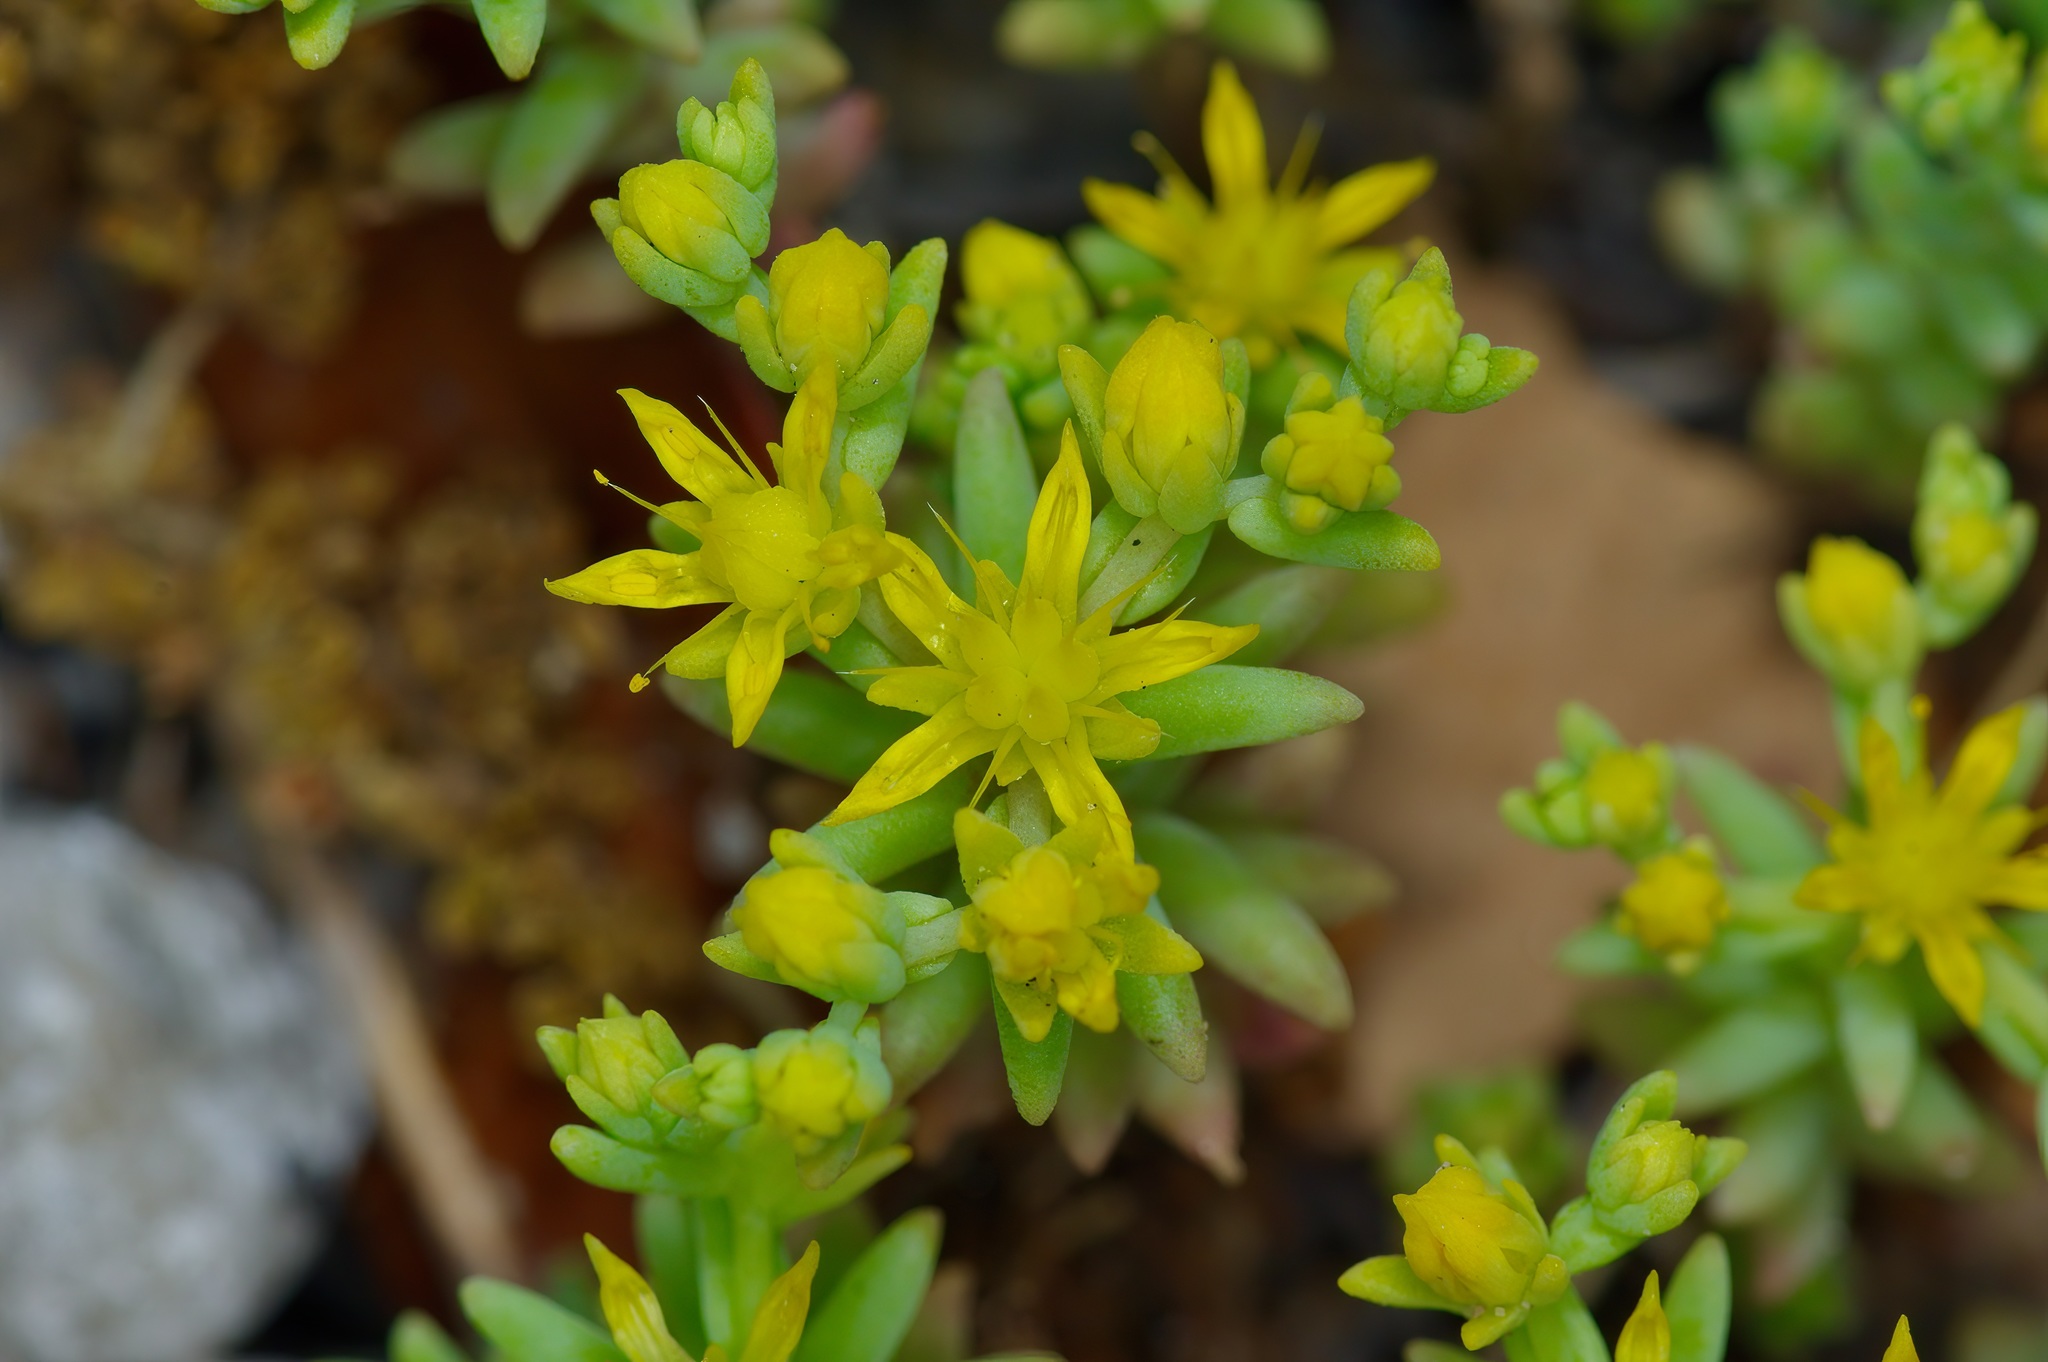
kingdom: Plantae
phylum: Tracheophyta
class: Magnoliopsida
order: Saxifragales
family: Crassulaceae
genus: Sedum
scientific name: Sedum nuttallii
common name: Yellow stonecrop
